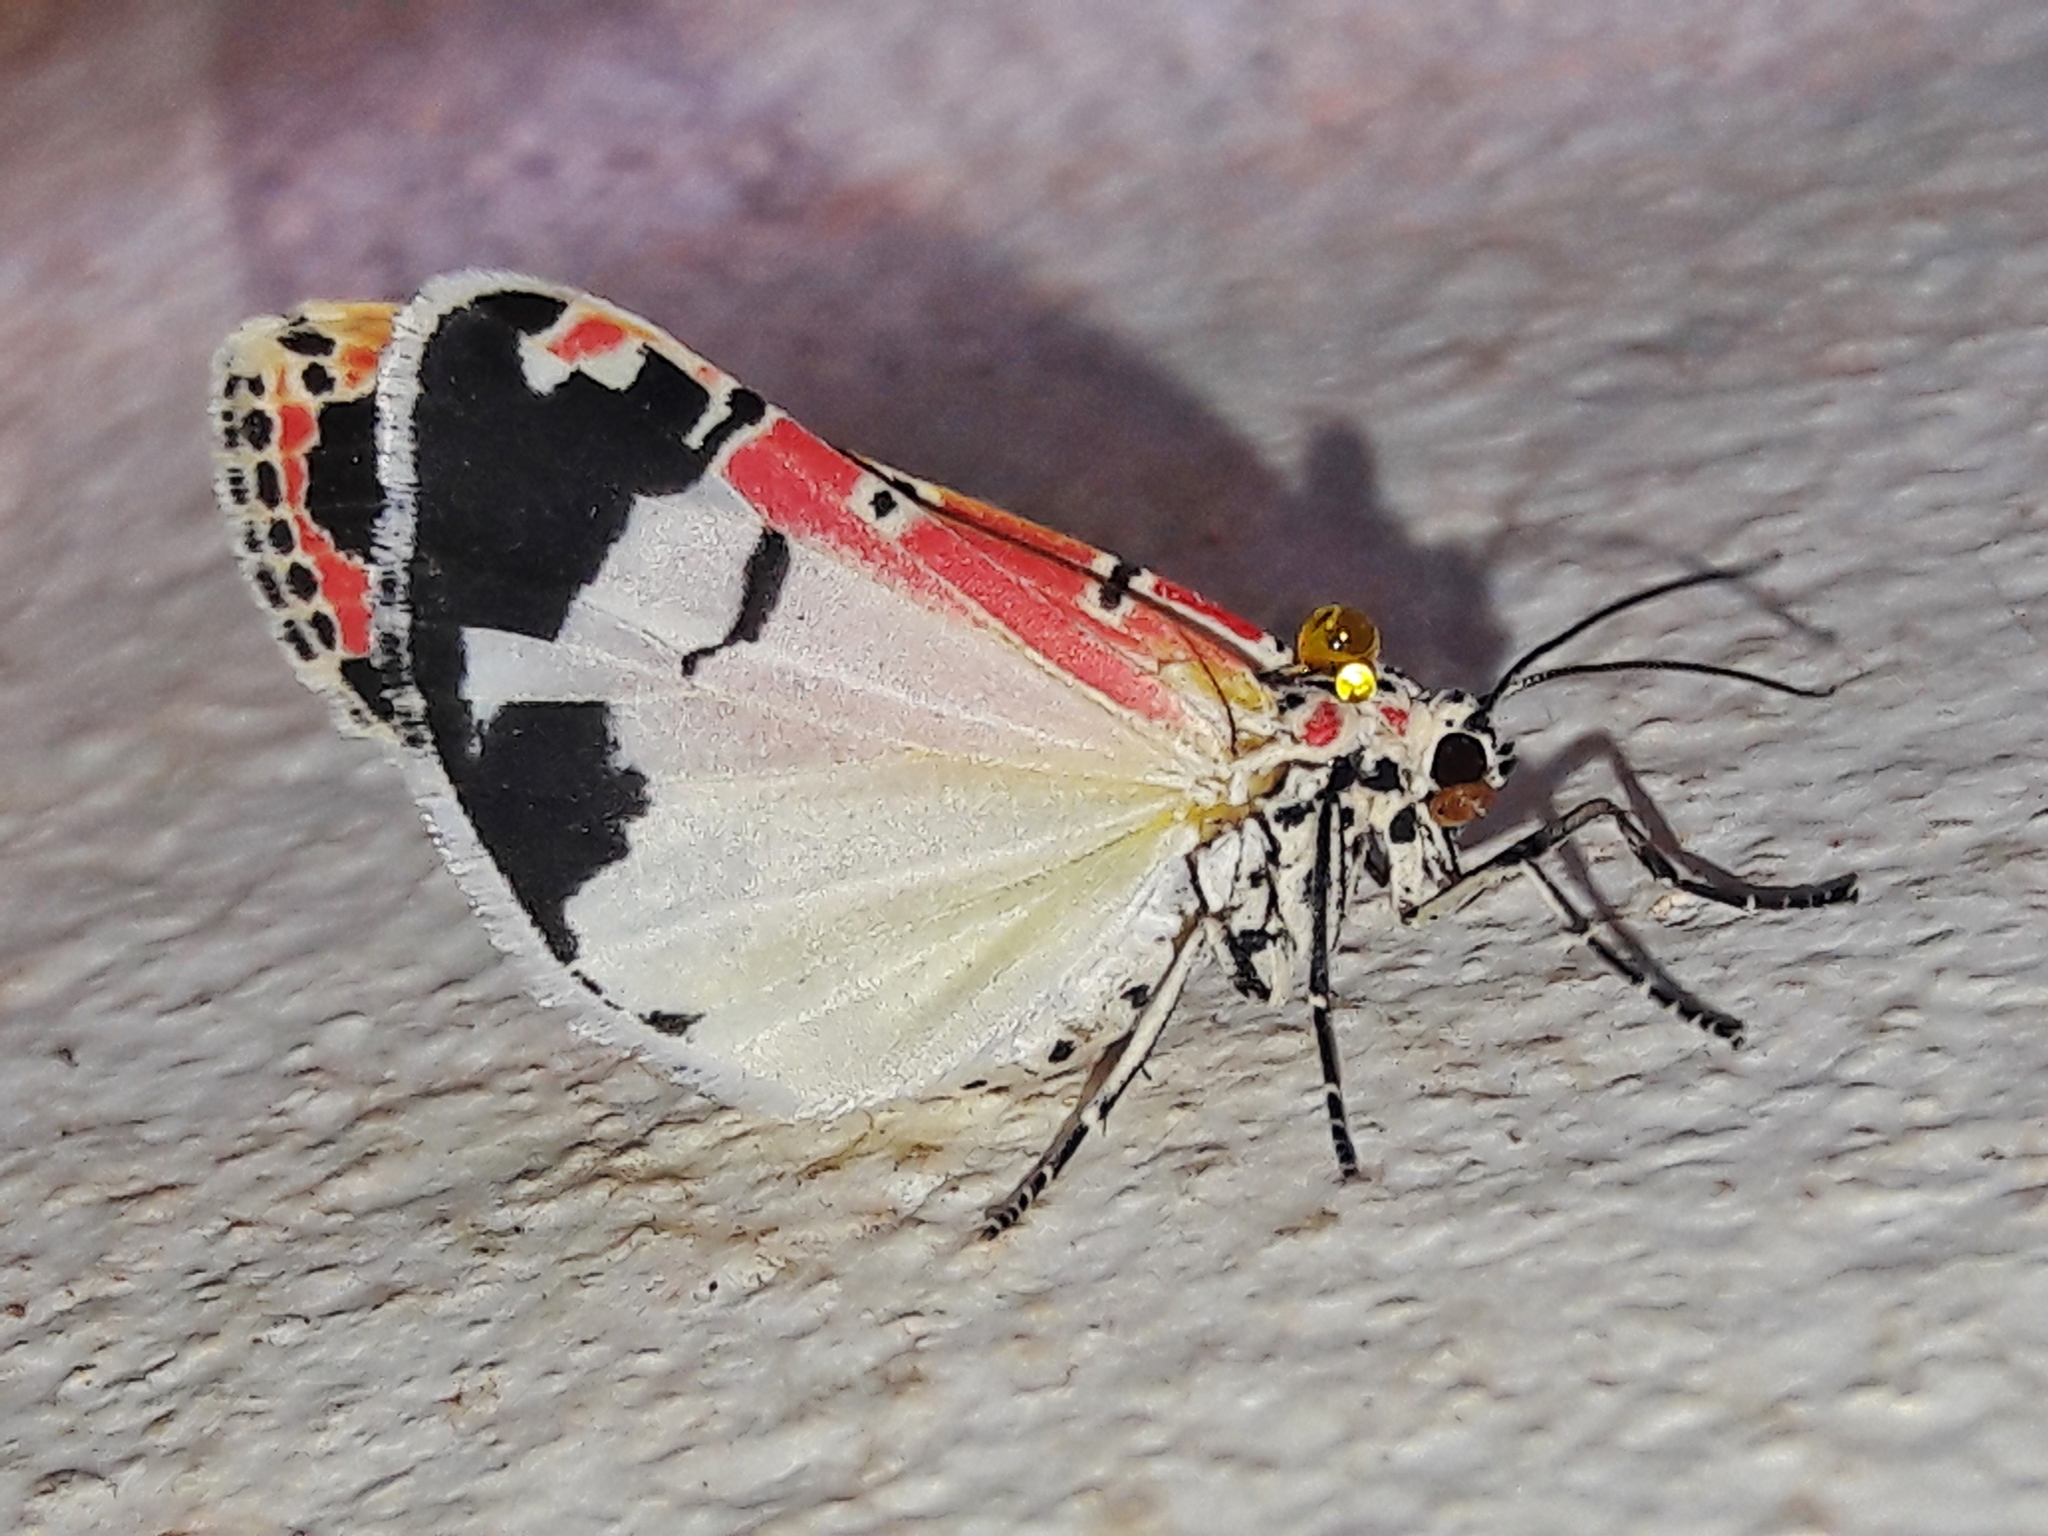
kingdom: Animalia
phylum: Arthropoda
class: Insecta
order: Lepidoptera
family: Erebidae
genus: Utetheisa
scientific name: Utetheisa ornatrix
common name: Beautiful utetheisa
